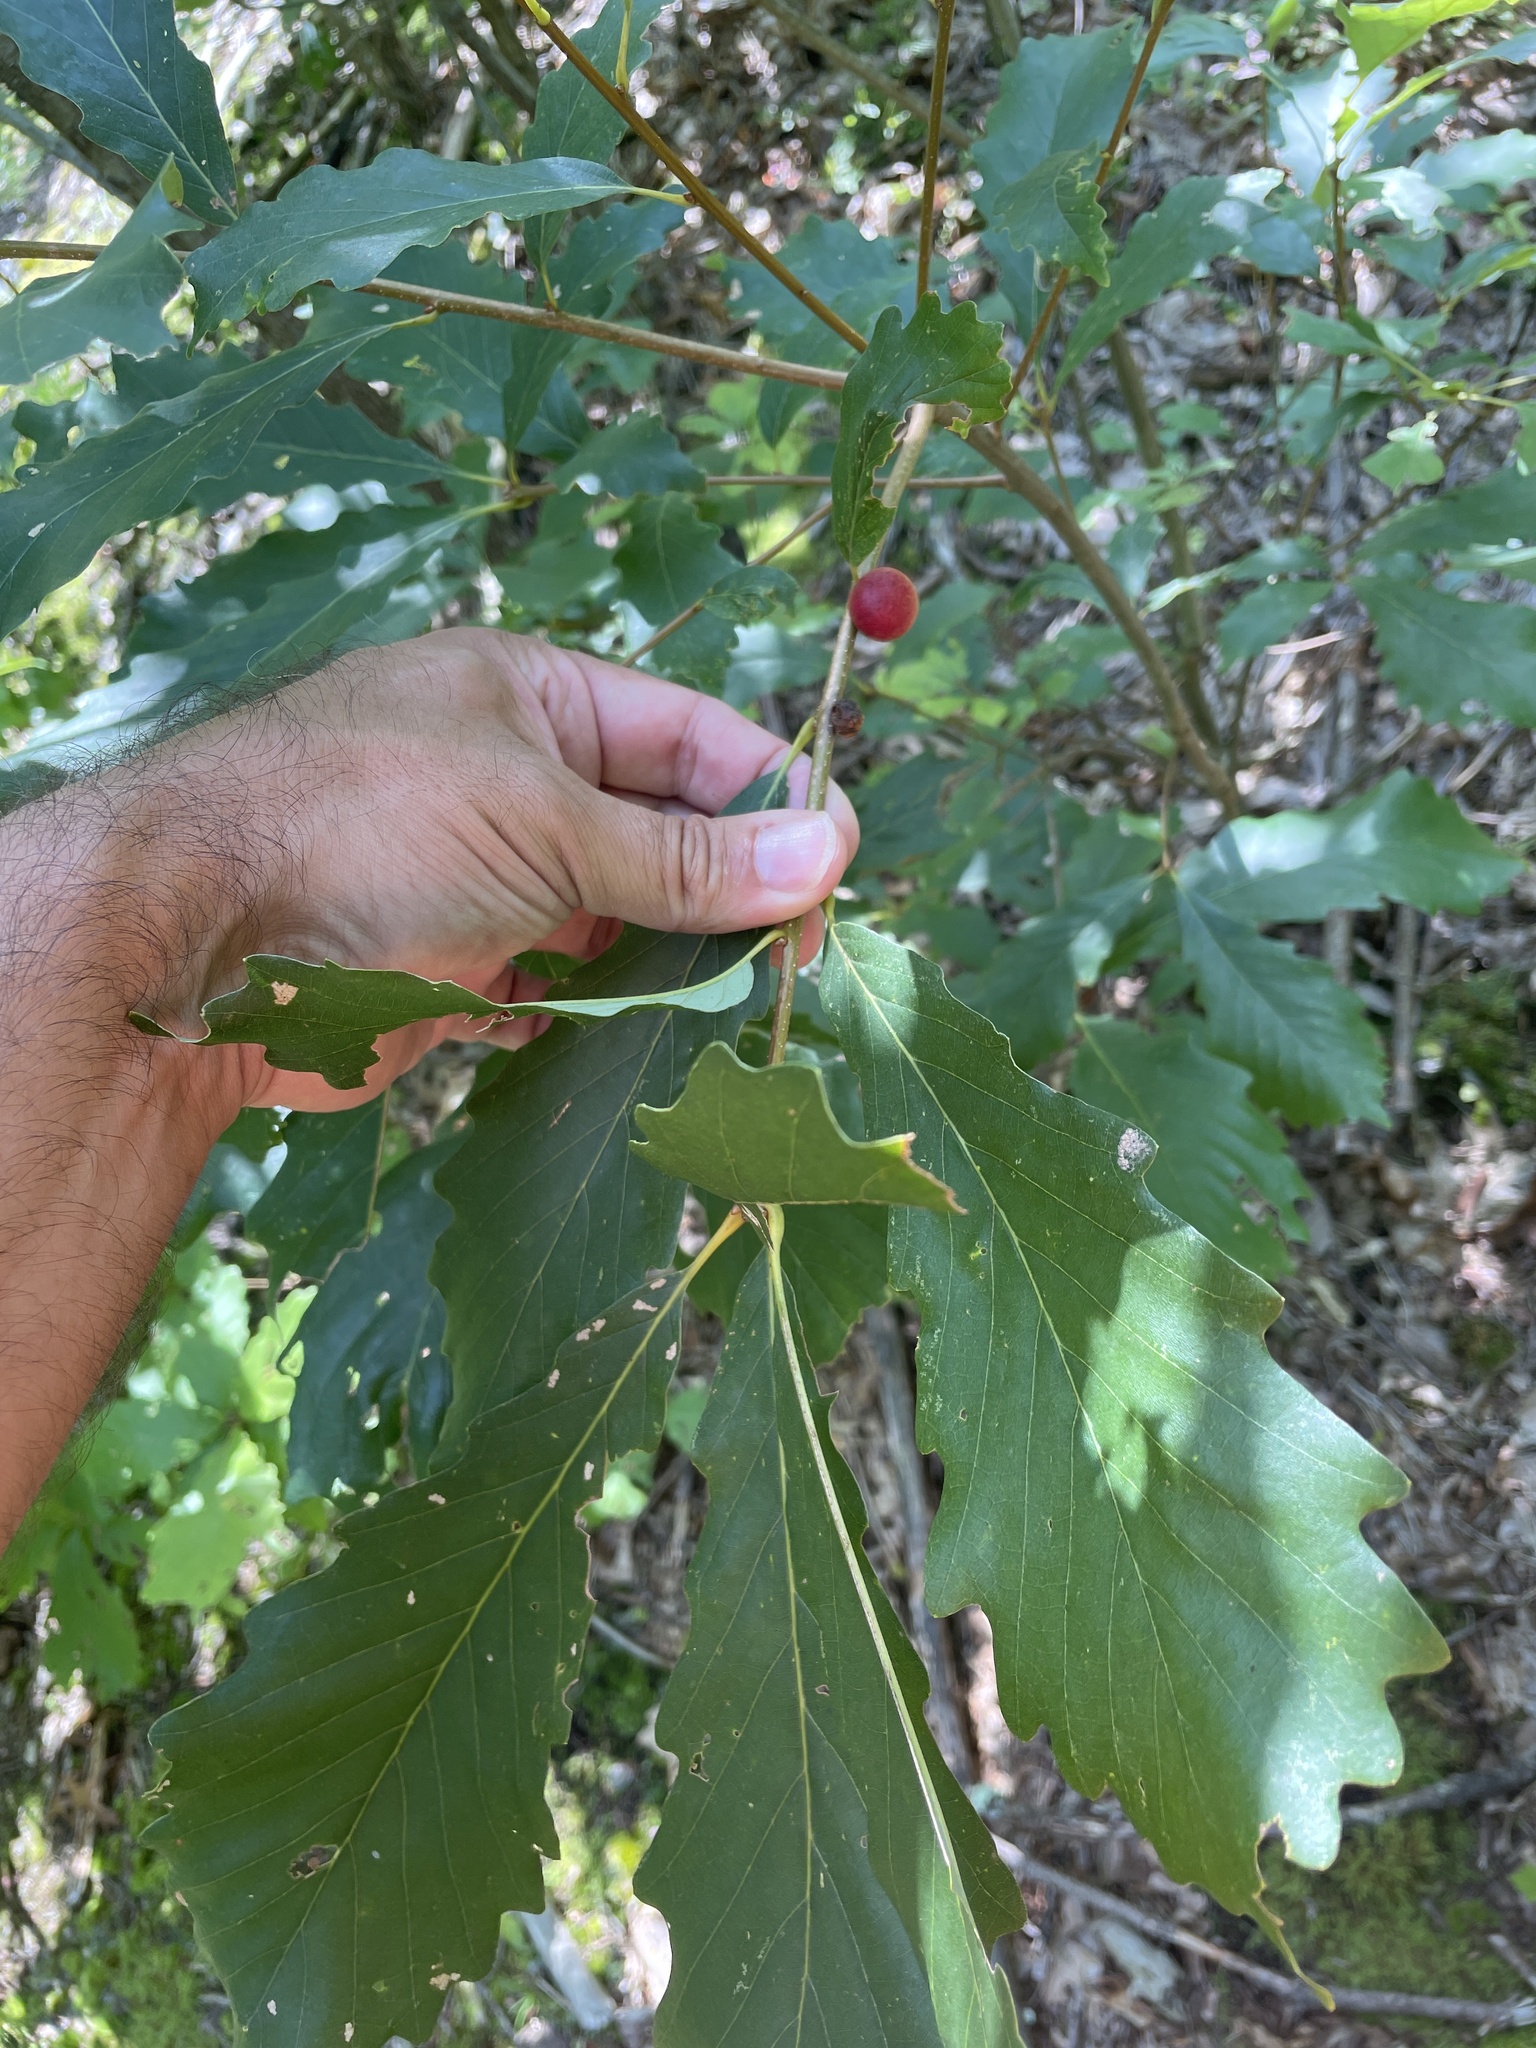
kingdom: Animalia
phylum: Arthropoda
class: Insecta
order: Hymenoptera
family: Cynipidae
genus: Disholcaspis
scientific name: Disholcaspis quercusglobulus
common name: Round bullet gall wasp
